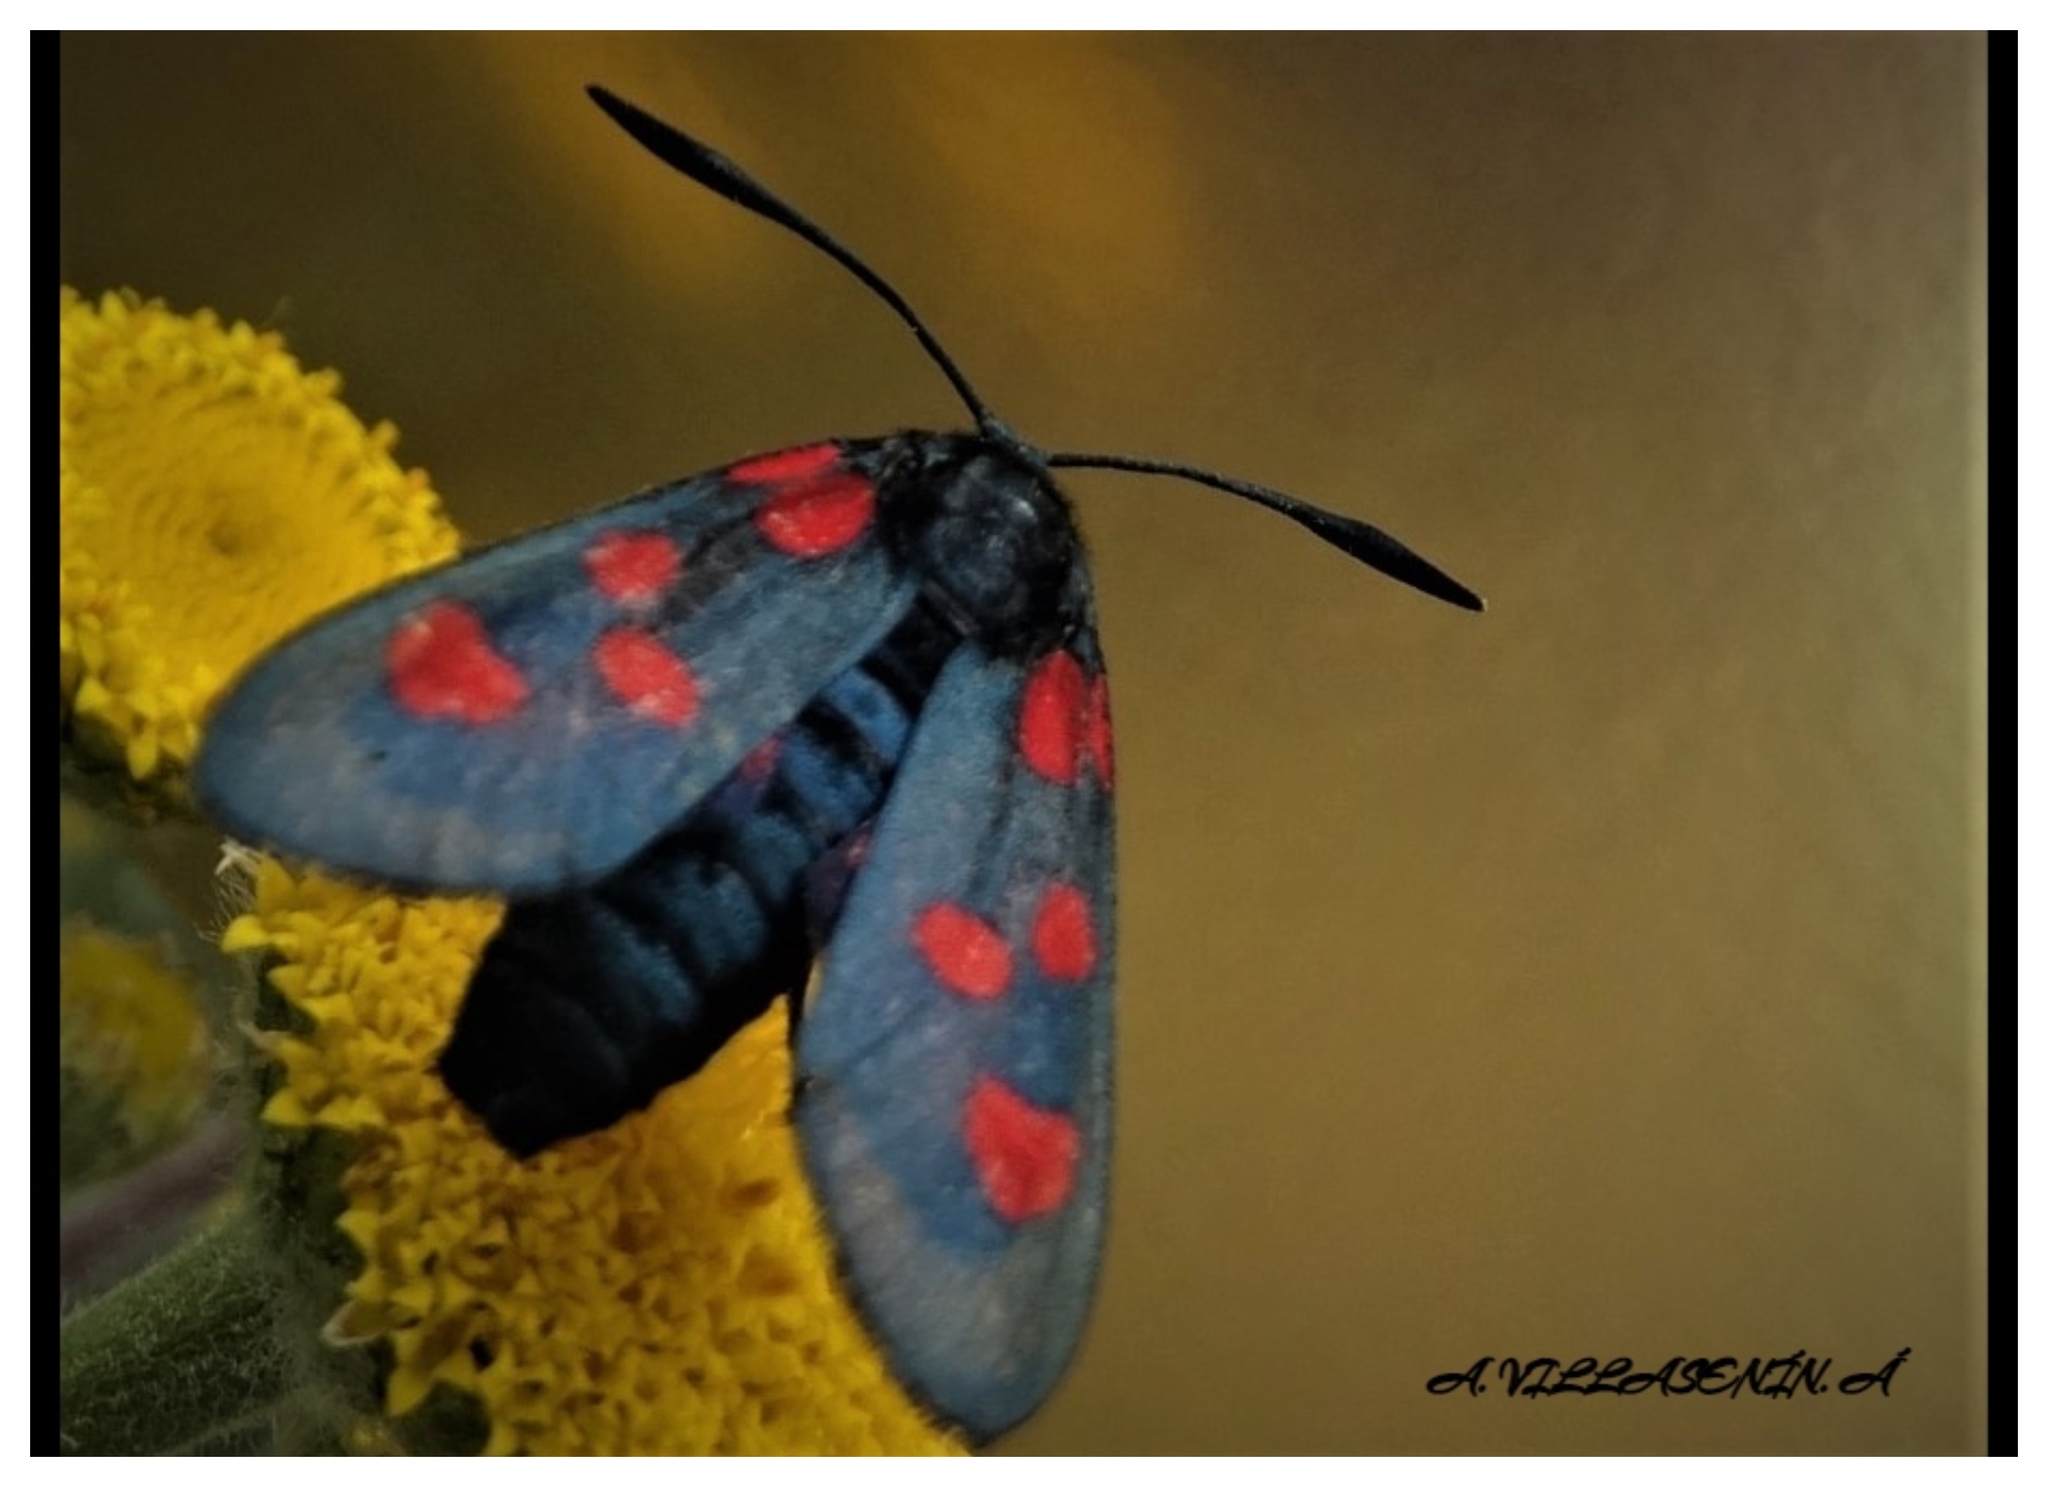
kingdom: Animalia
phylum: Arthropoda
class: Insecta
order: Lepidoptera
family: Zygaenidae
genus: Zygaena
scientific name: Zygaena trifolii
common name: Five-spot burnet
